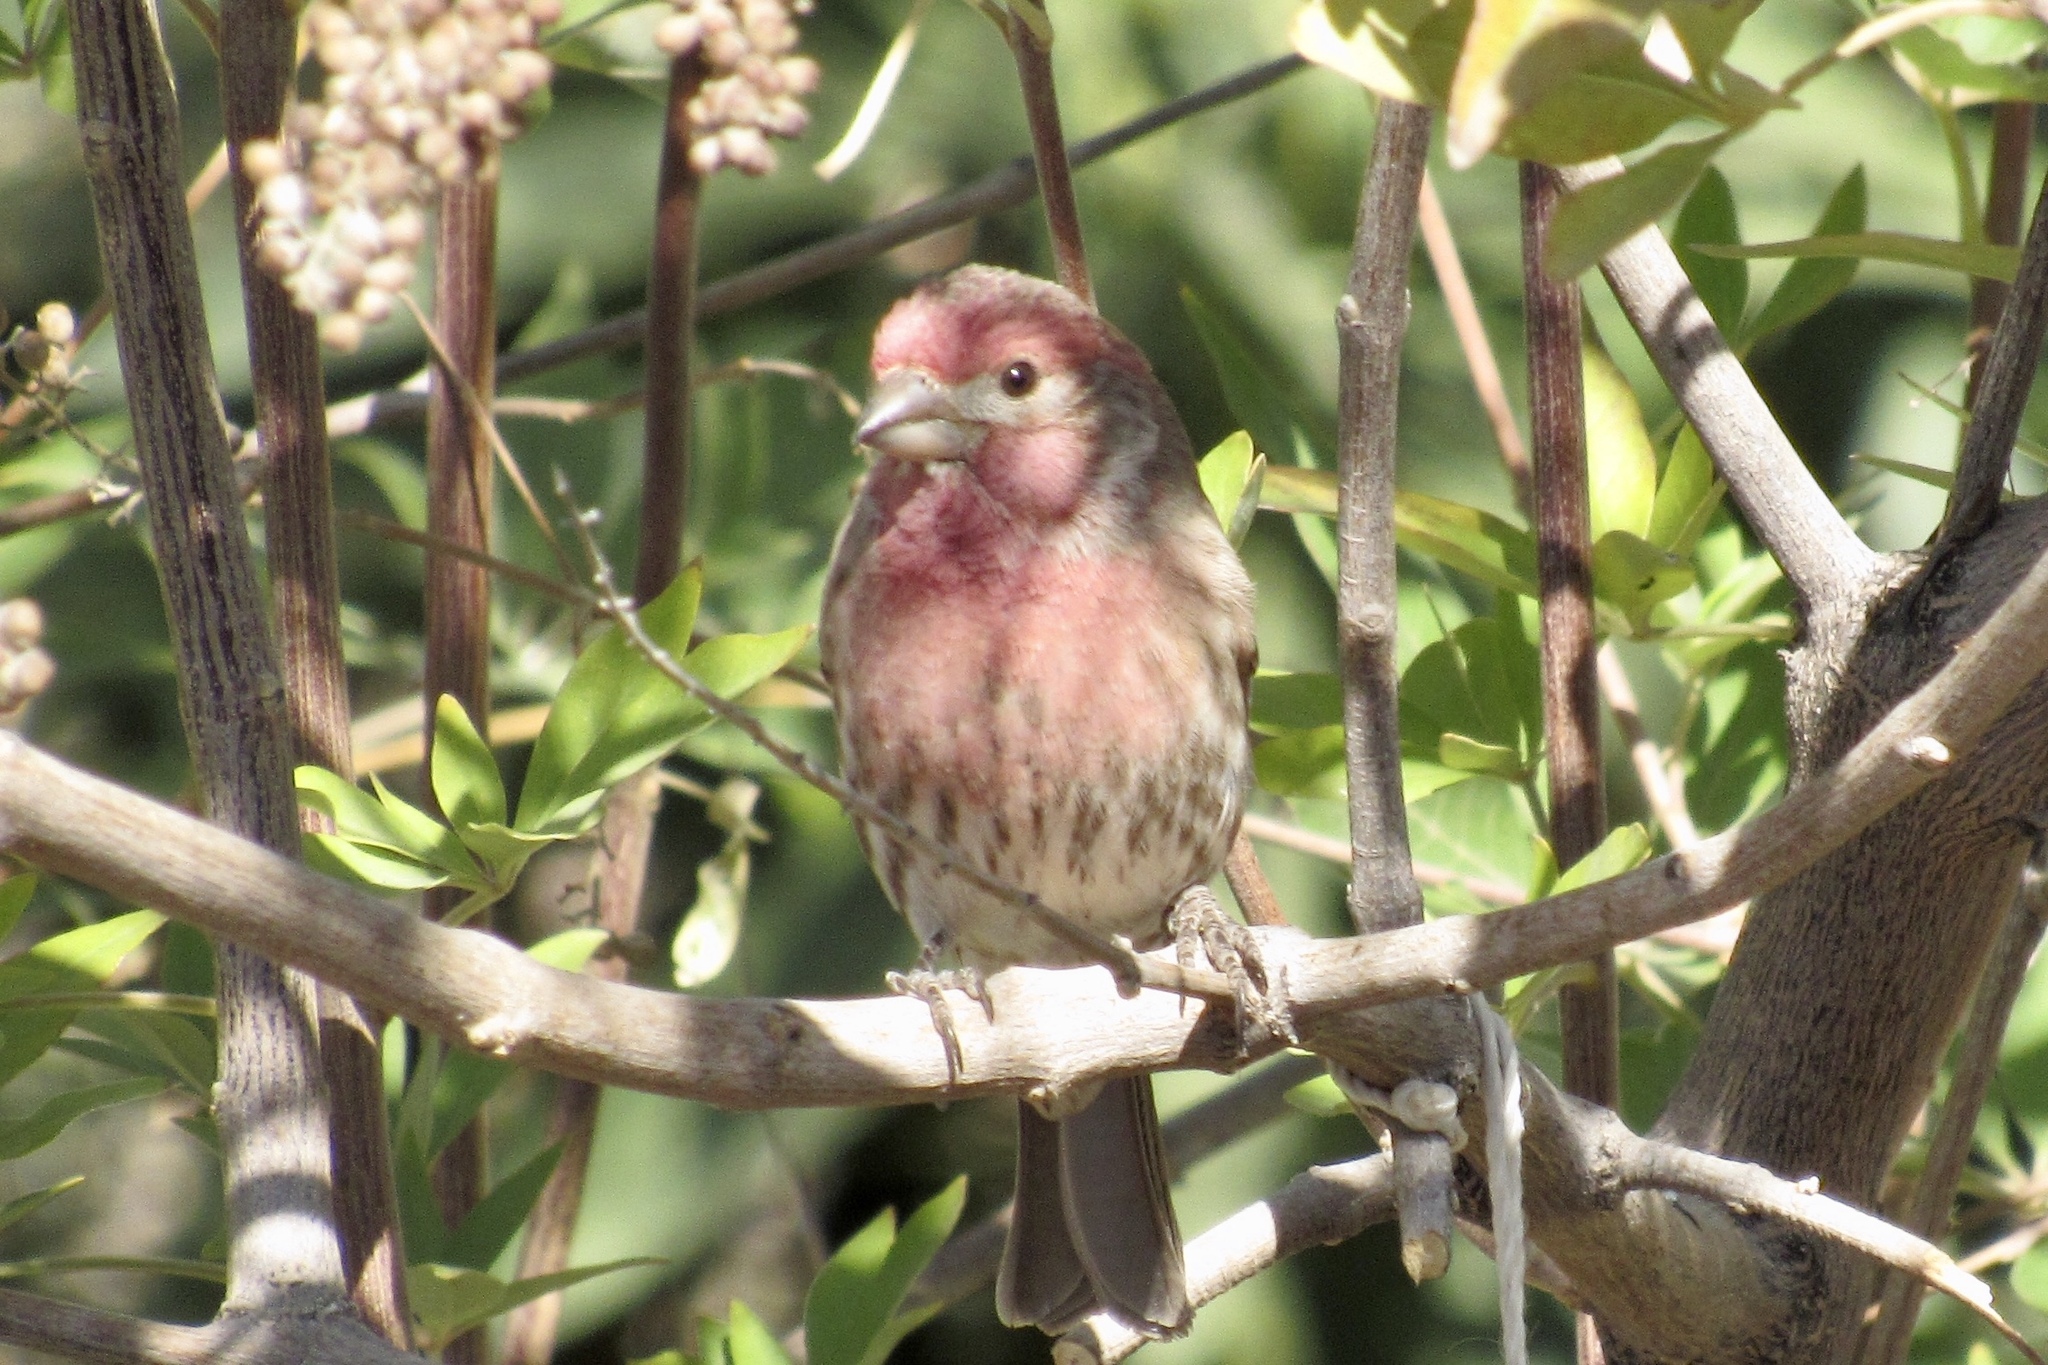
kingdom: Animalia
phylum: Chordata
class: Aves
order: Passeriformes
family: Fringillidae
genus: Haemorhous
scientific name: Haemorhous mexicanus
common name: House finch
